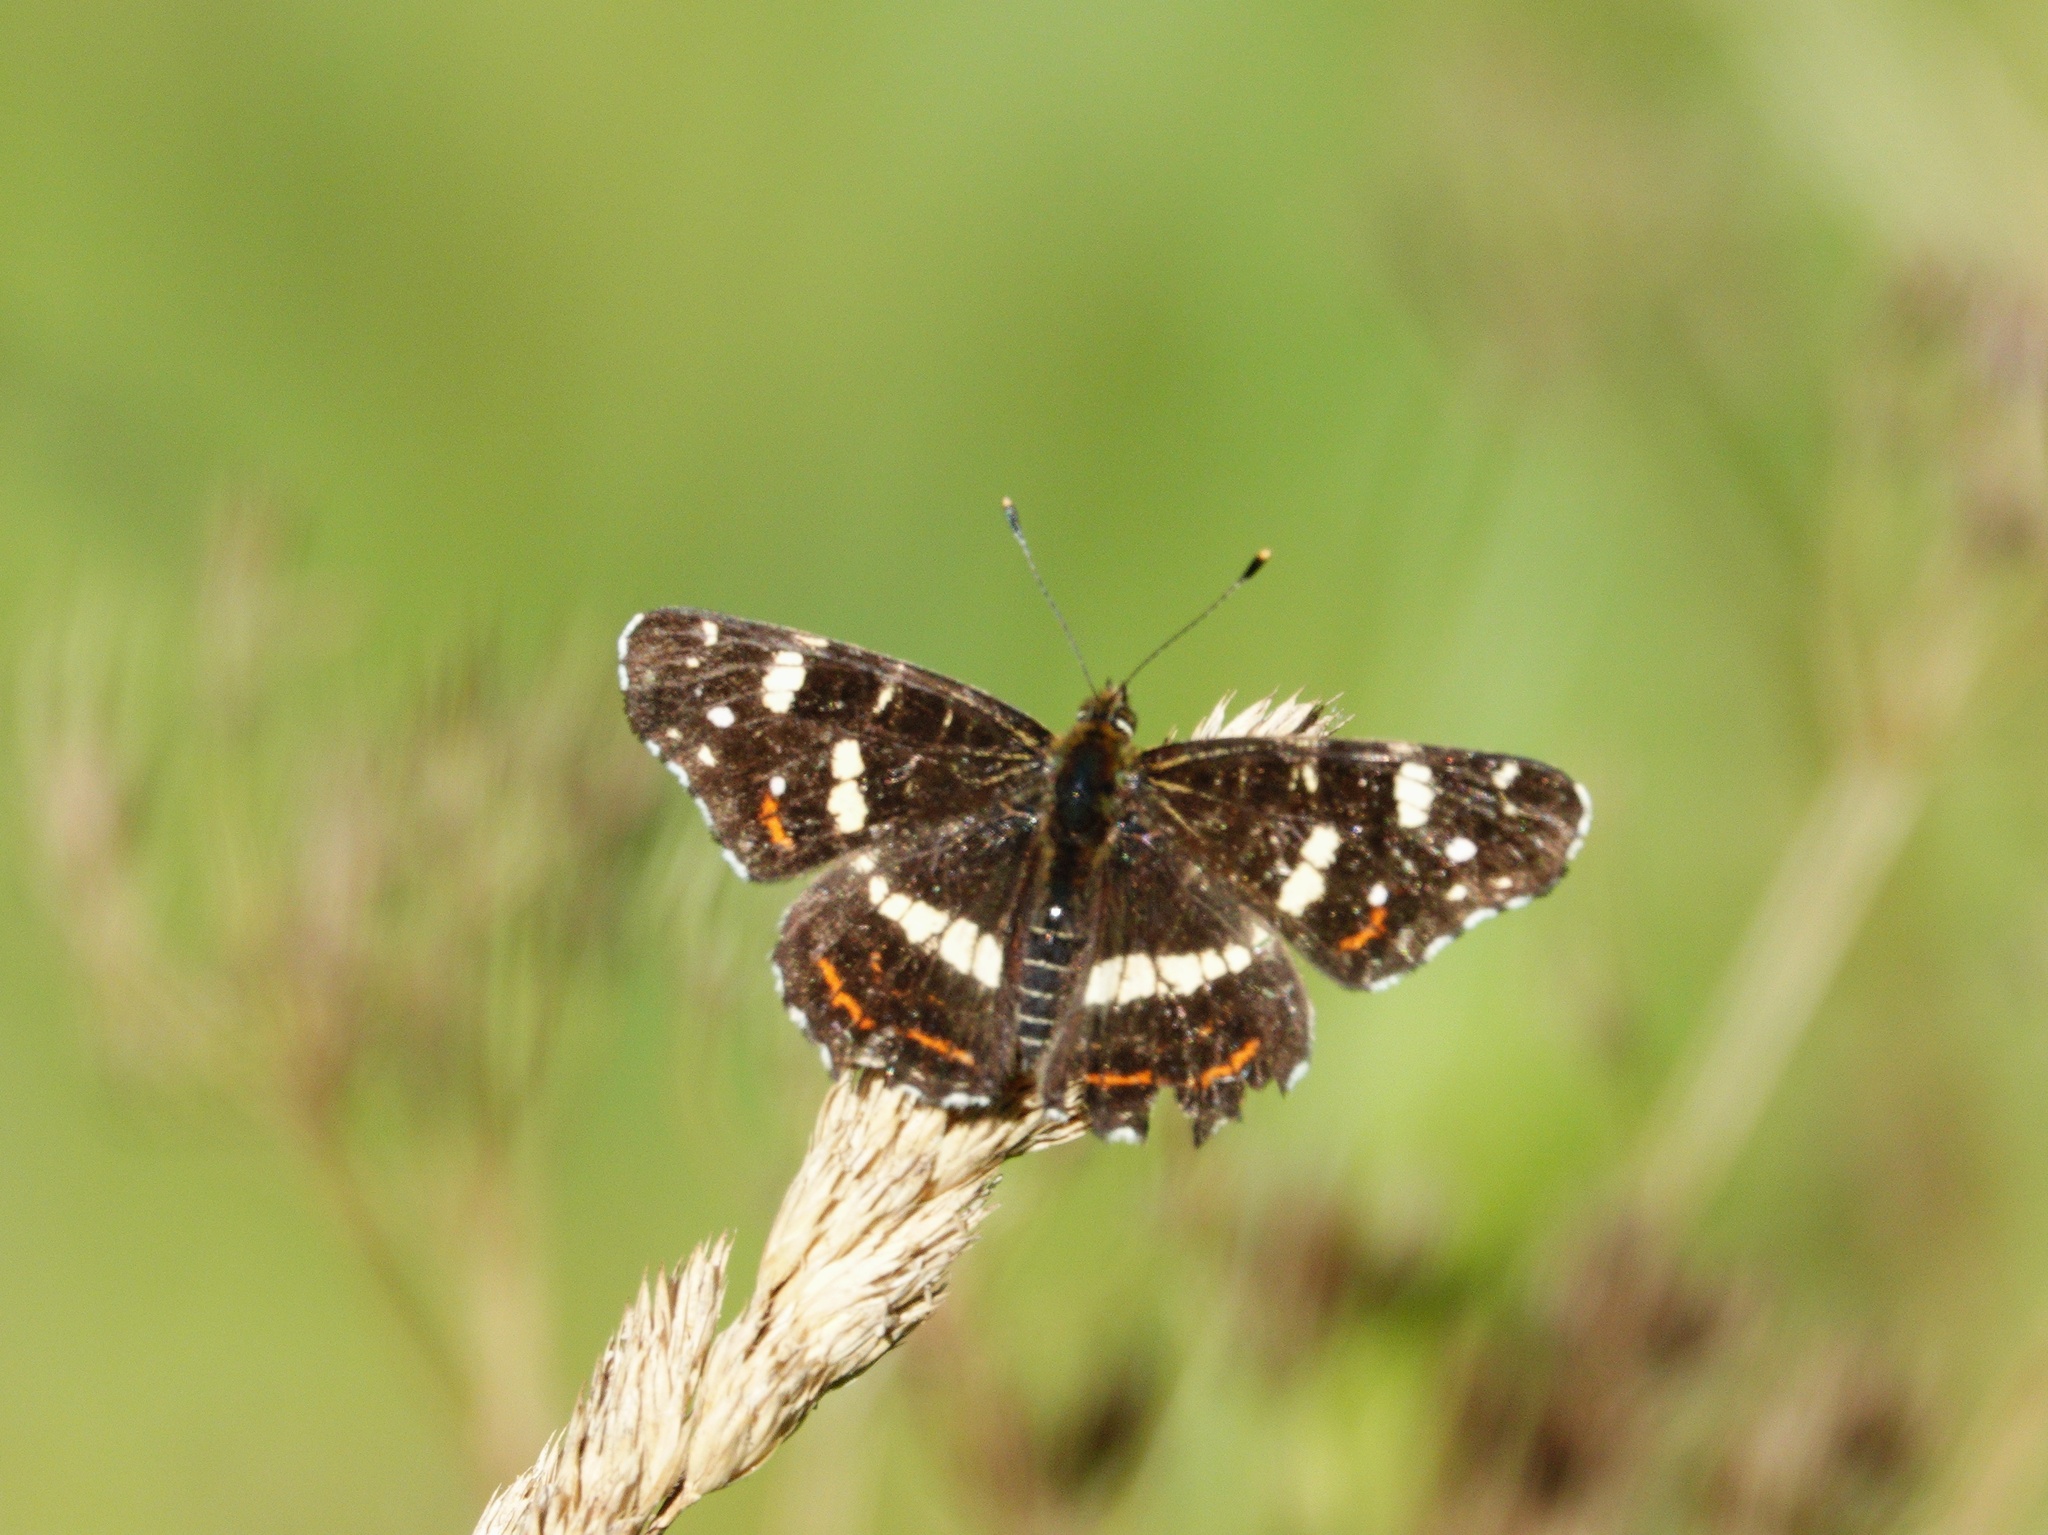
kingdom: Animalia
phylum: Arthropoda
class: Insecta
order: Lepidoptera
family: Nymphalidae
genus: Araschnia
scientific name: Araschnia levana
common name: Map butterfly
